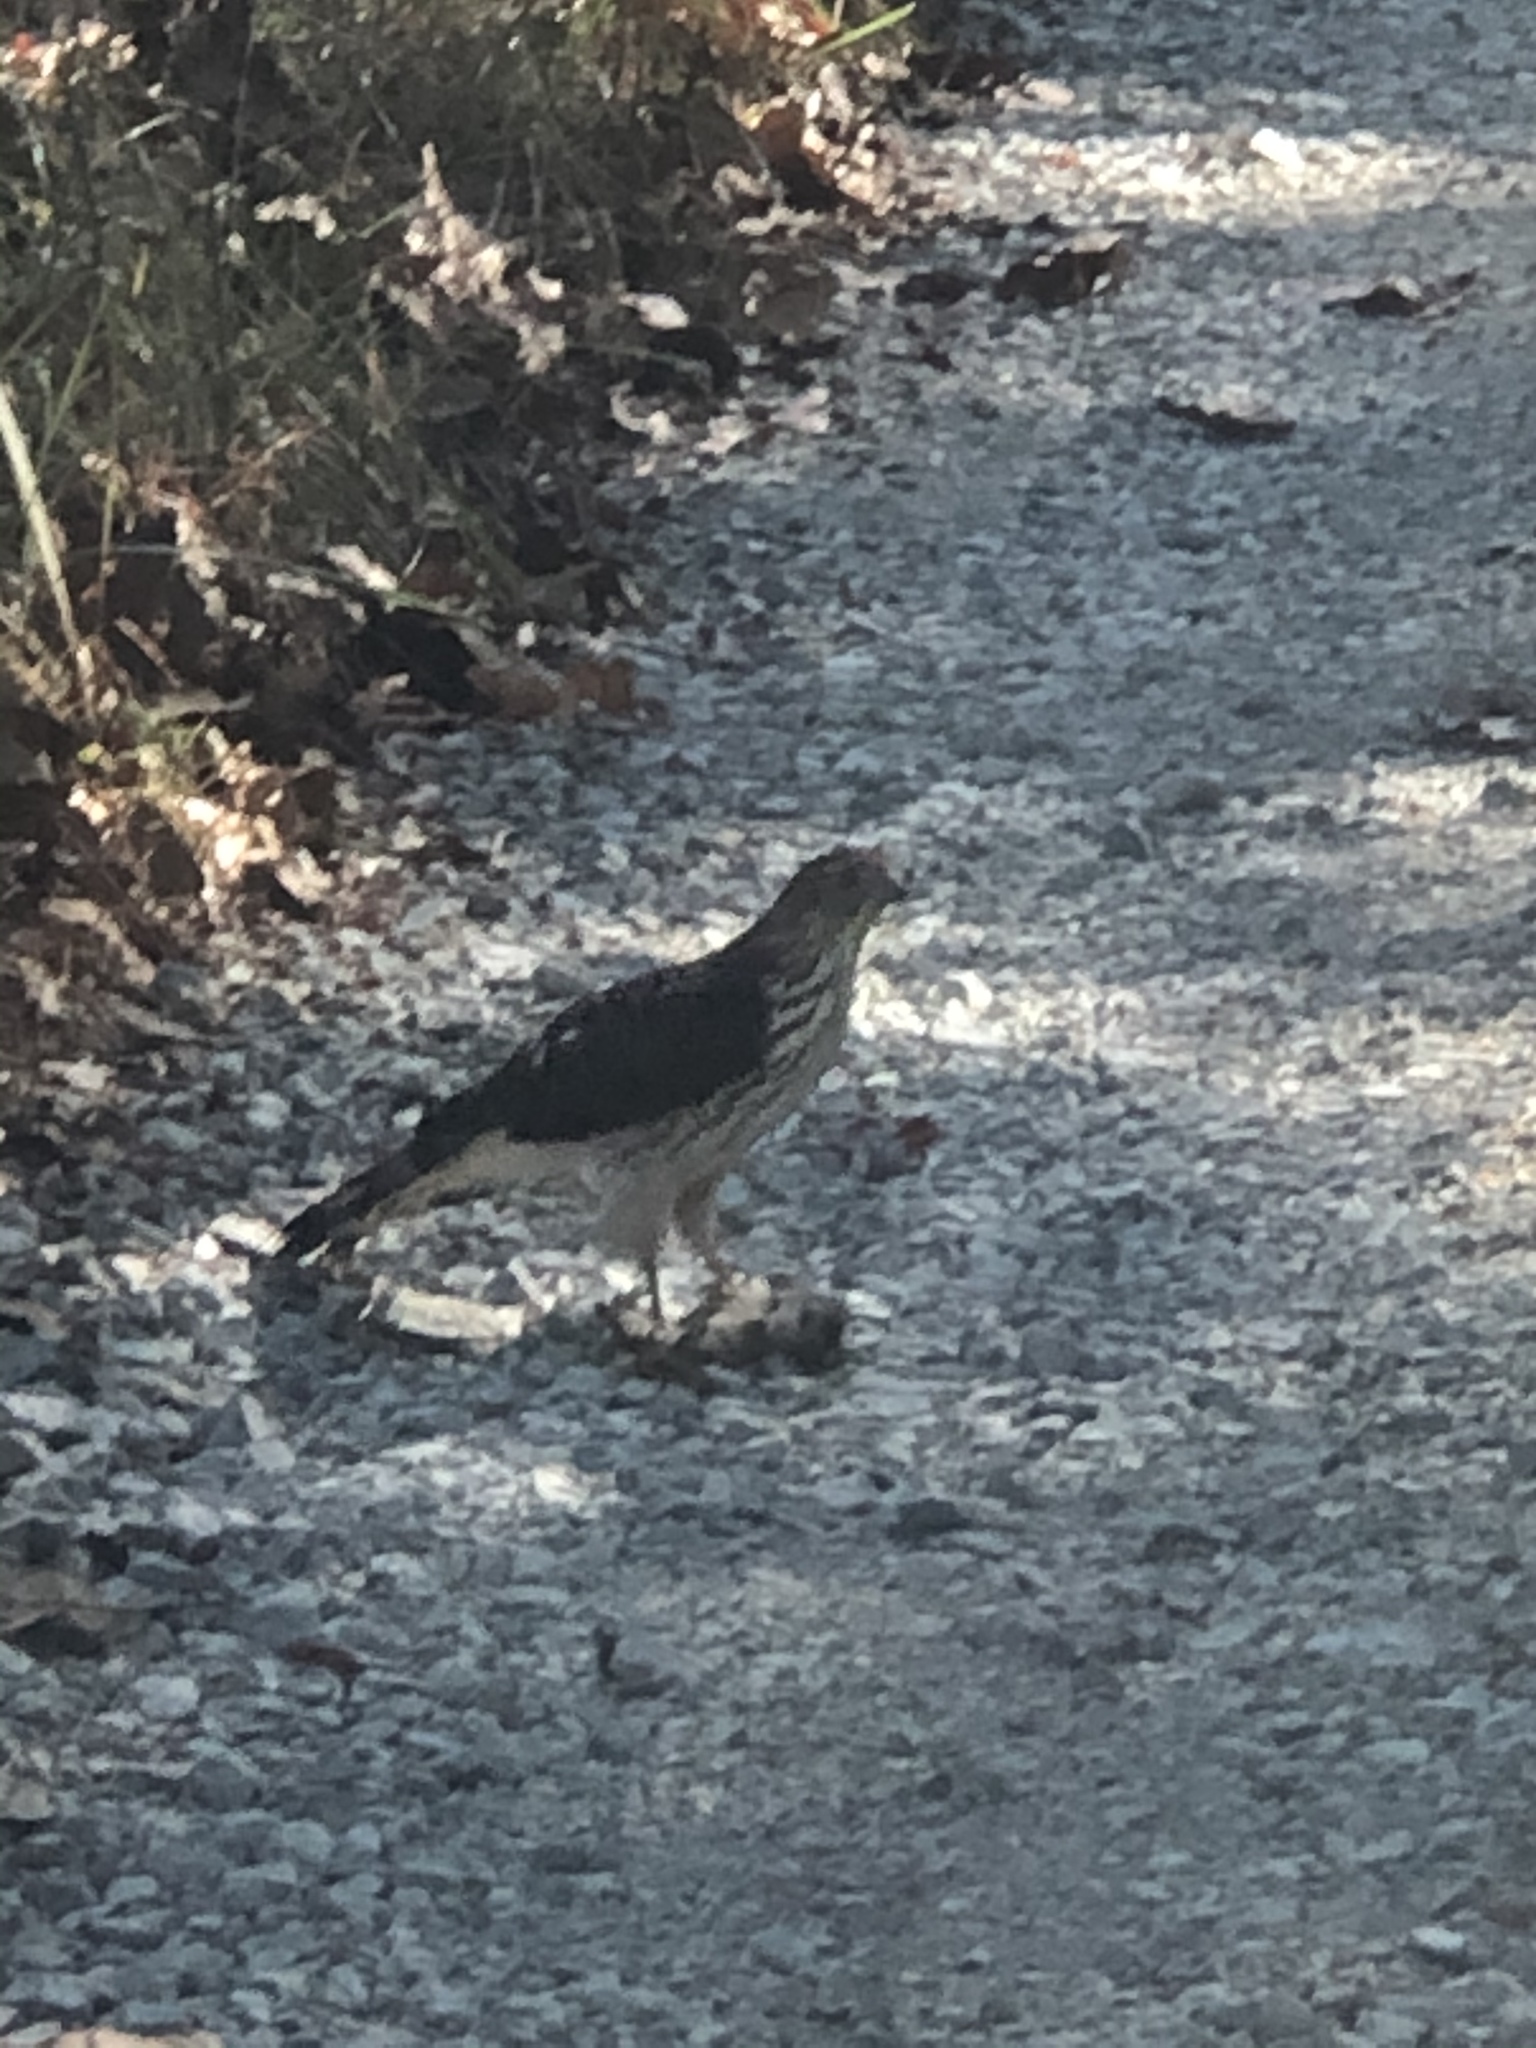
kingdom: Animalia
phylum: Chordata
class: Aves
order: Accipitriformes
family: Accipitridae
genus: Accipiter
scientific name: Accipiter cooperii
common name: Cooper's hawk
